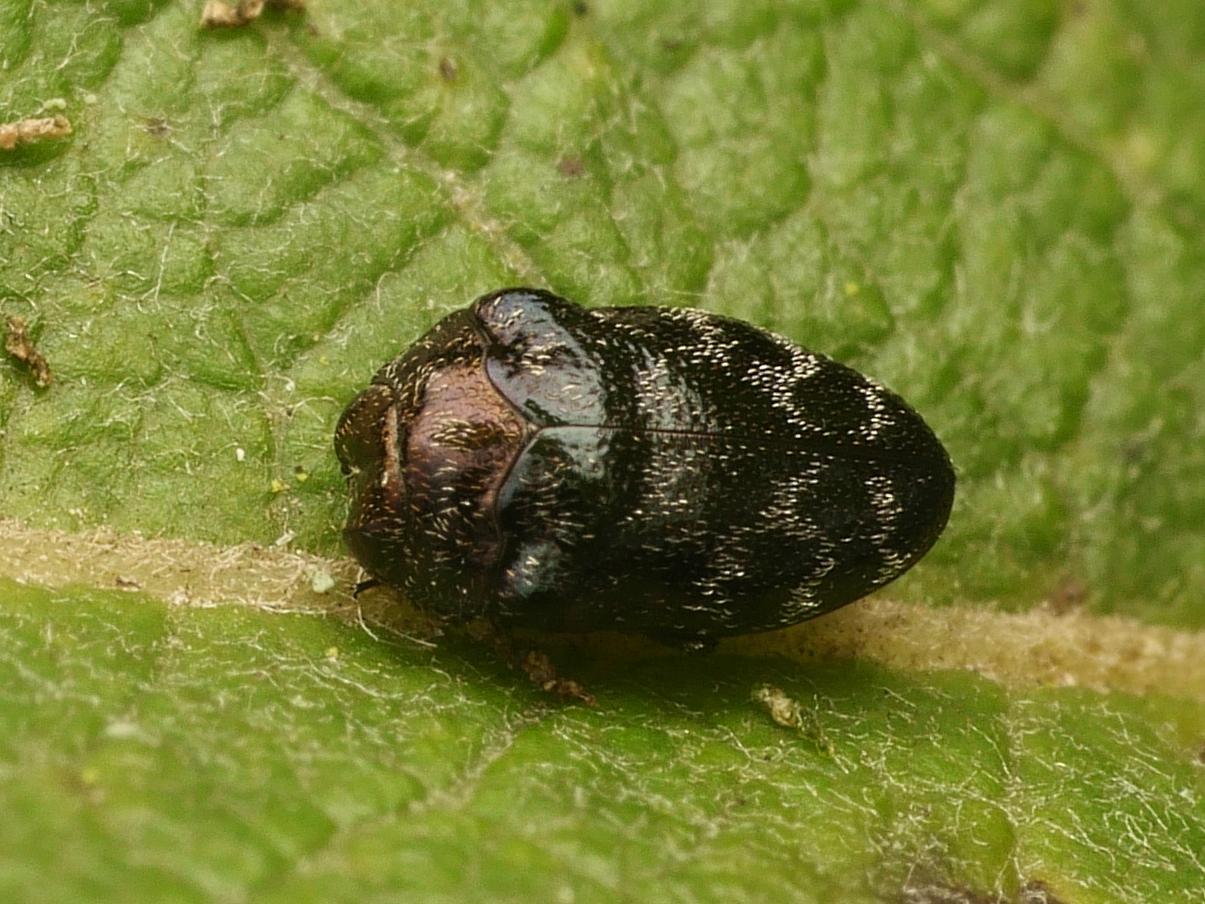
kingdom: Animalia
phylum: Arthropoda
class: Insecta
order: Coleoptera
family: Buprestidae
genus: Trachys
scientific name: Trachys minutus
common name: Metallic wood-boring beetle
